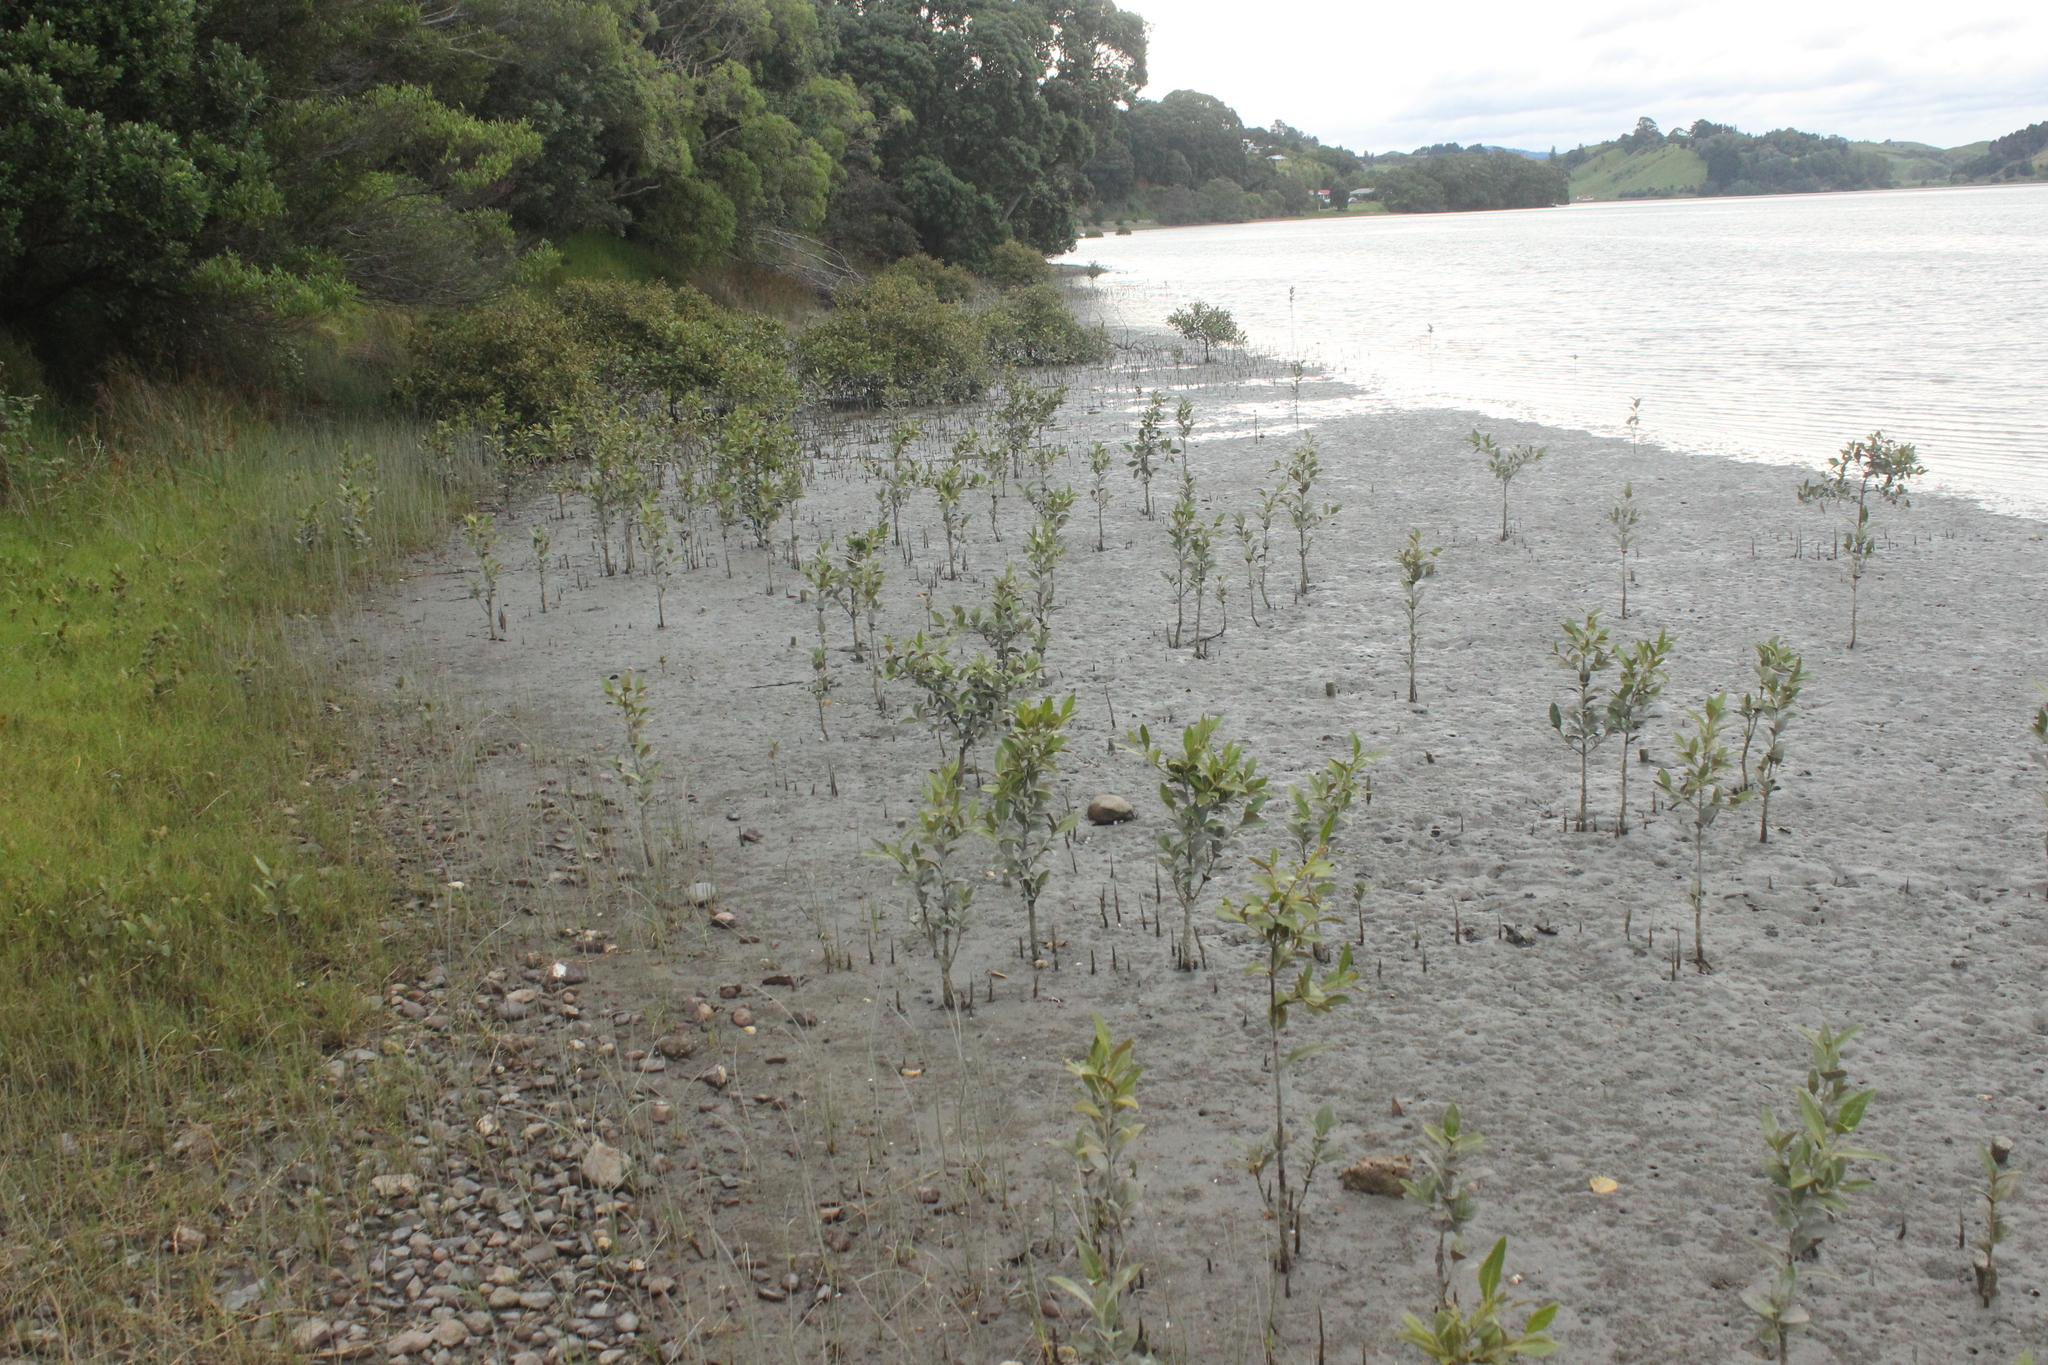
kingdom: Plantae
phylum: Tracheophyta
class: Magnoliopsida
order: Lamiales
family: Acanthaceae
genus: Avicennia
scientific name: Avicennia marina
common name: Gray mangrove
